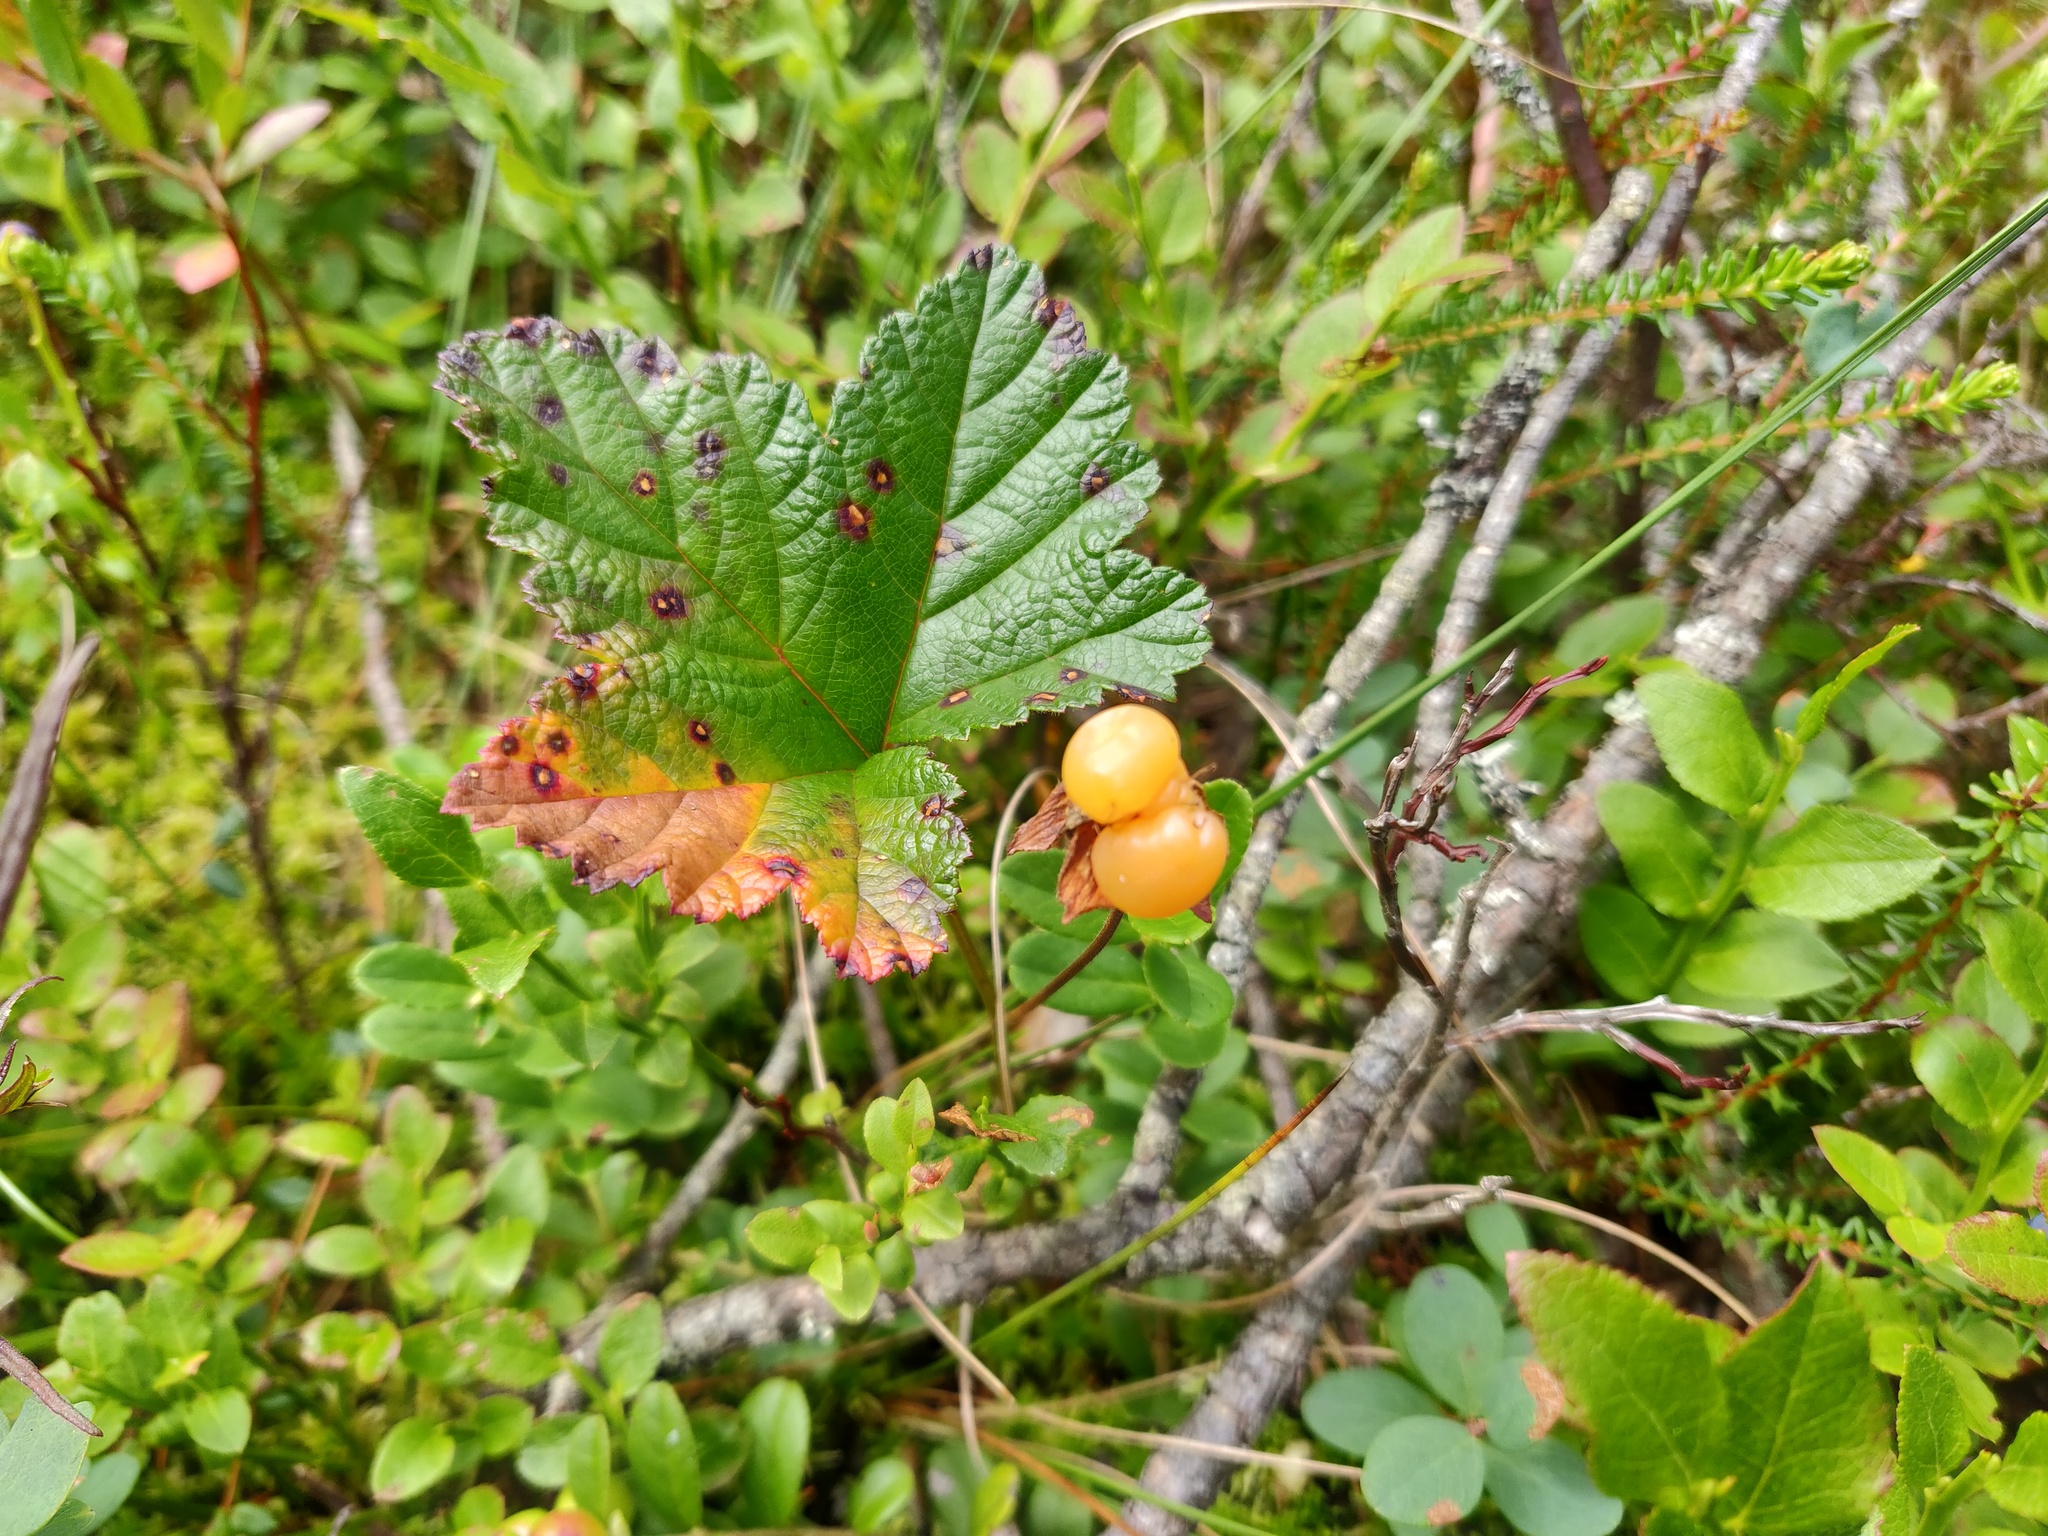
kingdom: Plantae
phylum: Tracheophyta
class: Magnoliopsida
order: Rosales
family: Rosaceae
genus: Rubus
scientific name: Rubus chamaemorus
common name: Cloudberry
